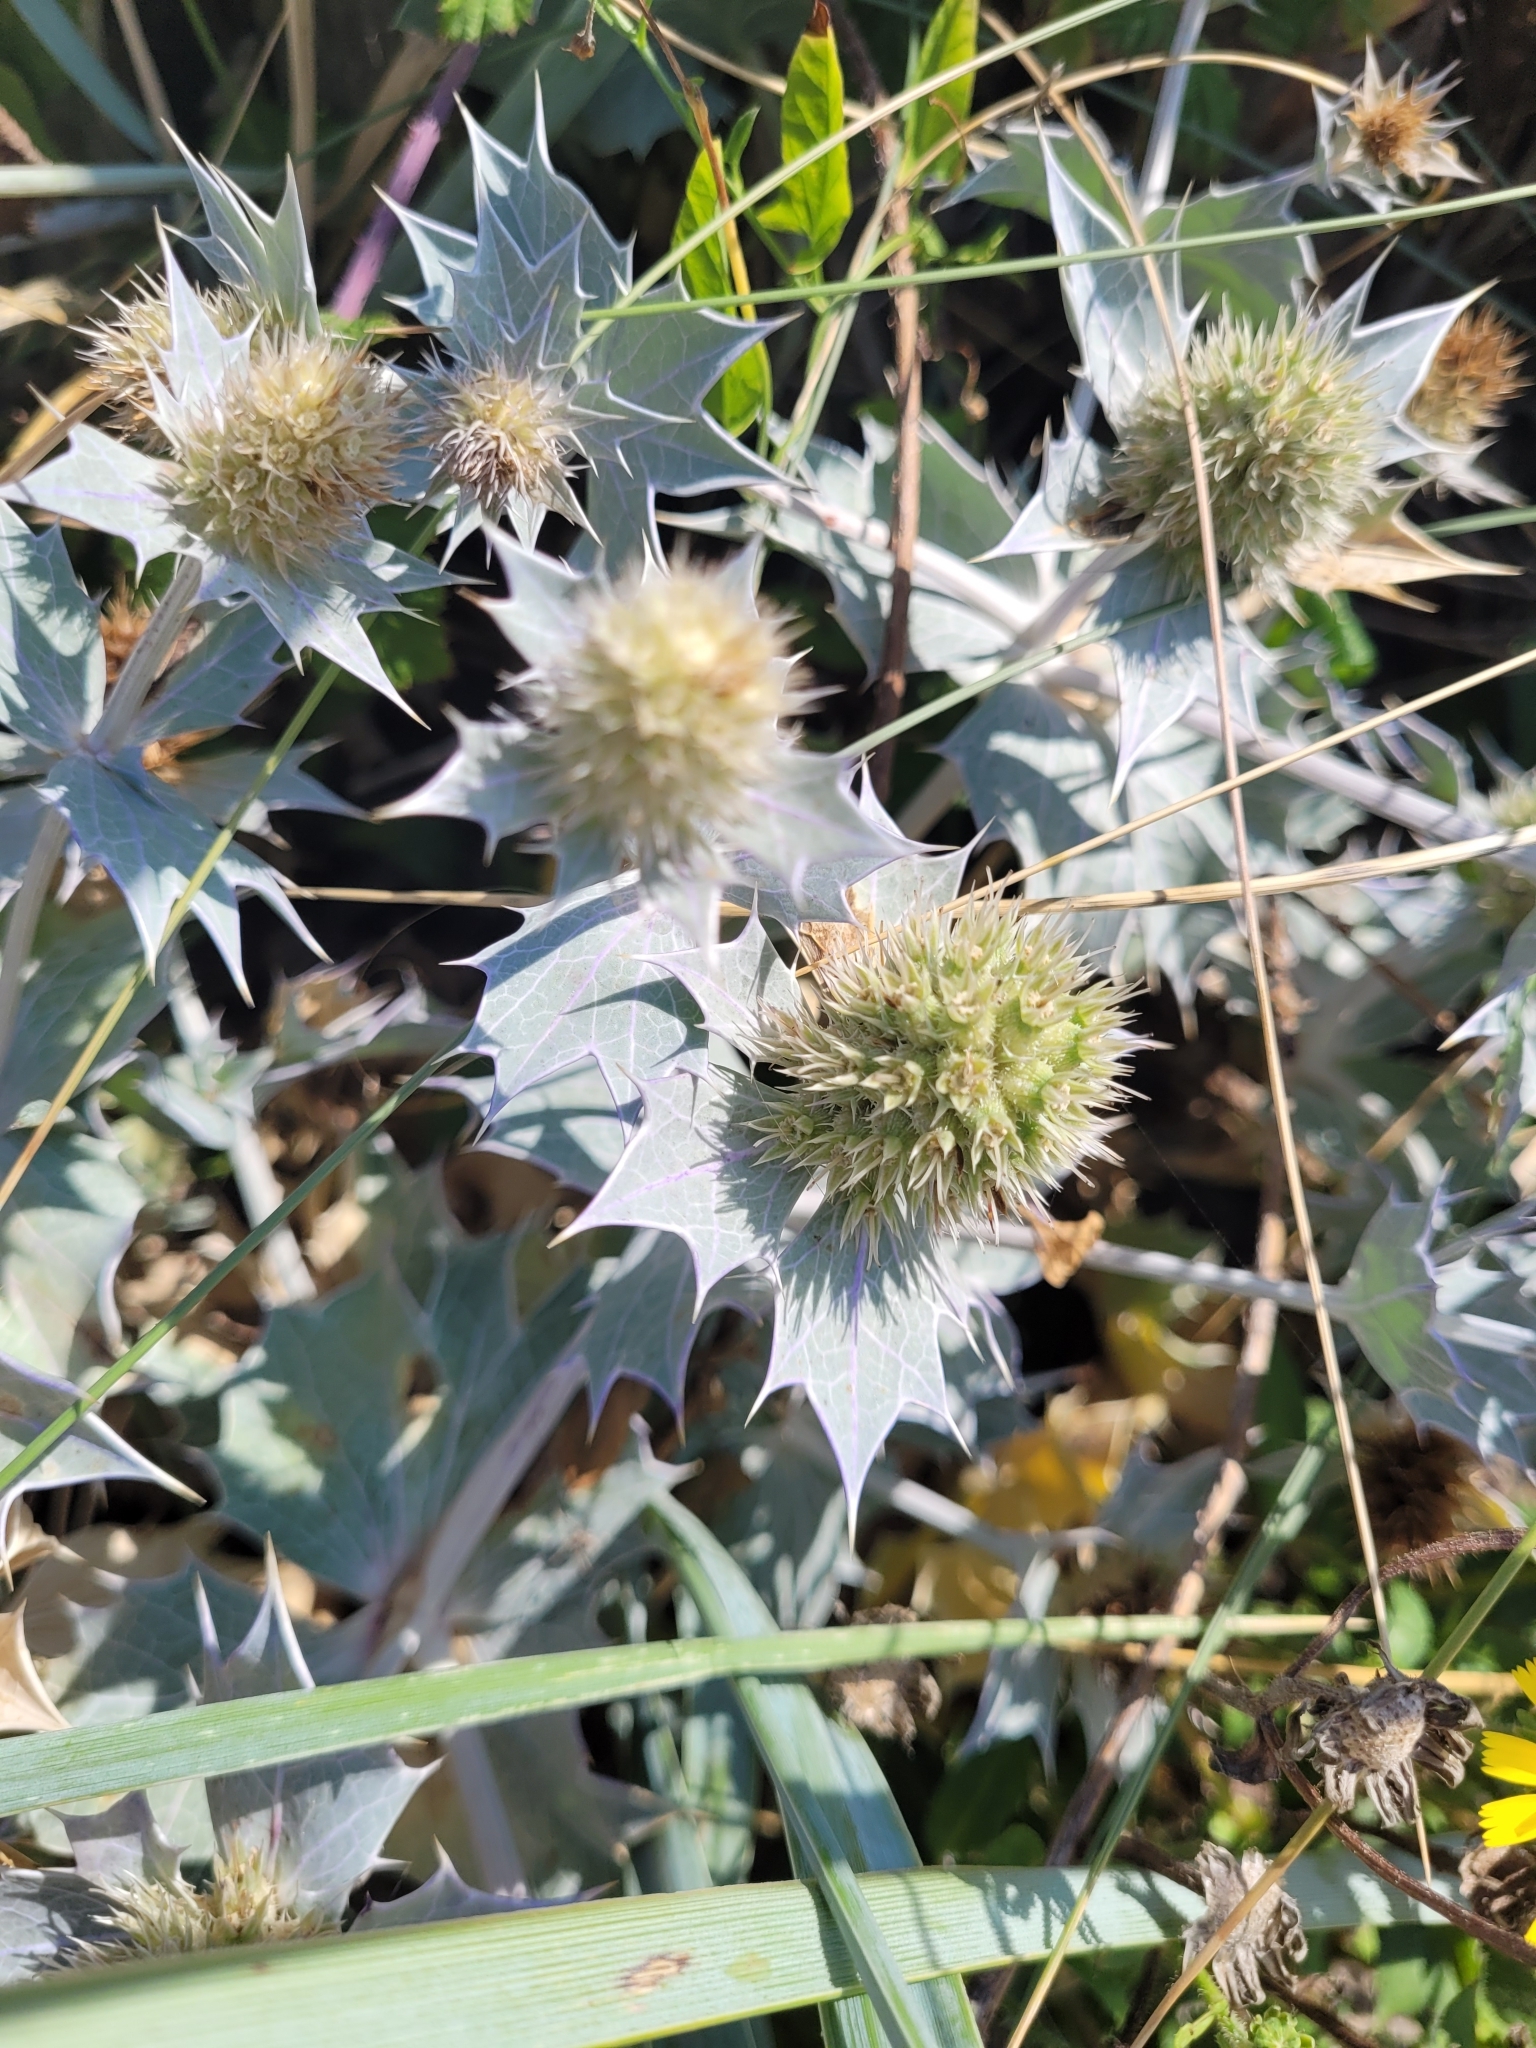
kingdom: Plantae
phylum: Tracheophyta
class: Magnoliopsida
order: Apiales
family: Apiaceae
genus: Eryngium
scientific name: Eryngium maritimum
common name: Sea-holly
